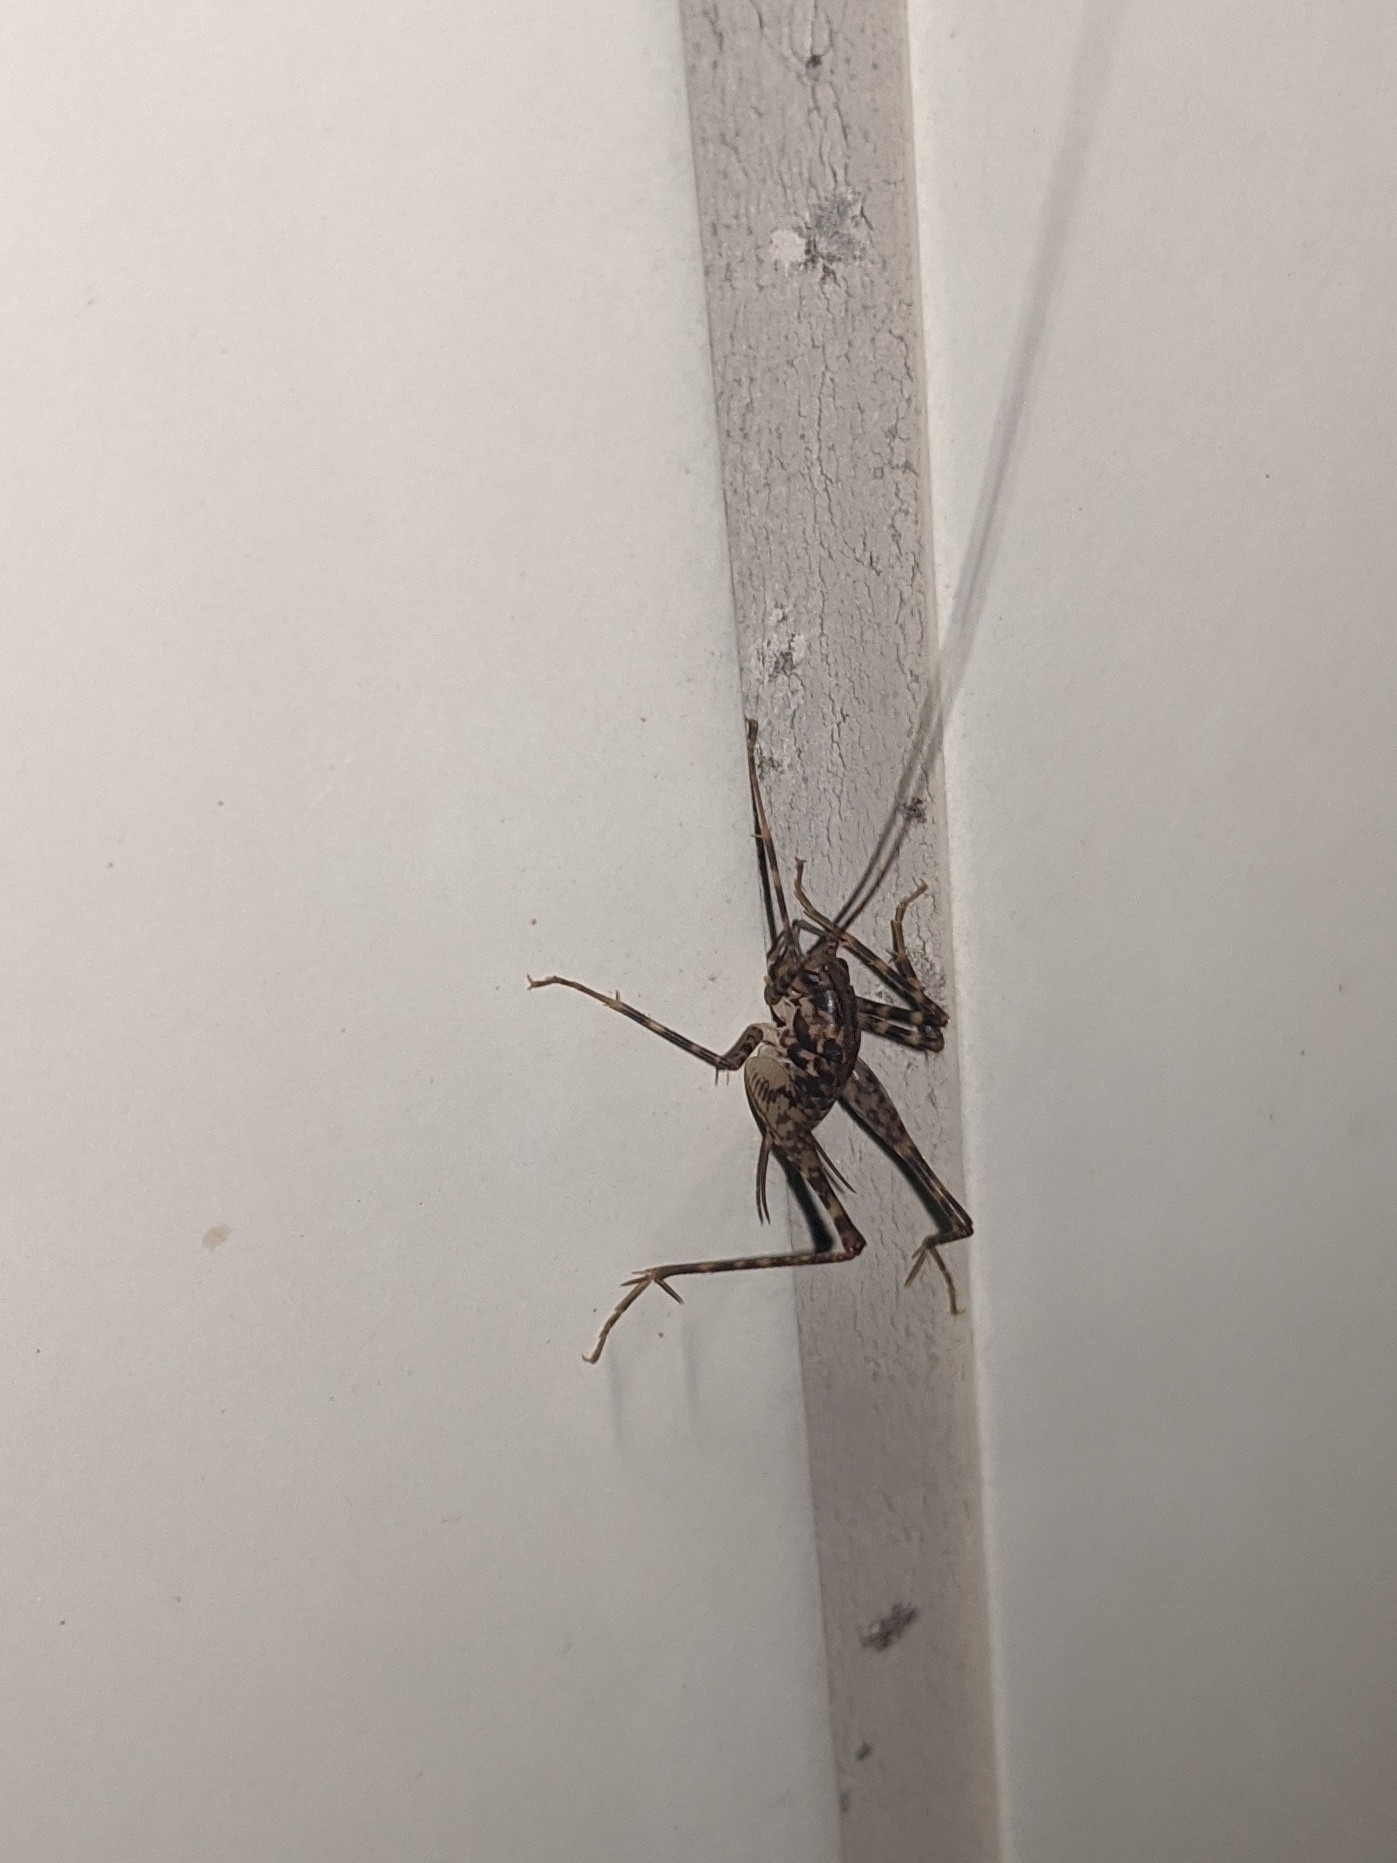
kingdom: Animalia
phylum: Arthropoda
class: Insecta
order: Orthoptera
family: Rhaphidophoridae
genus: Diestrammena
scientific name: Diestrammena japanica
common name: Japanese camel cricket
